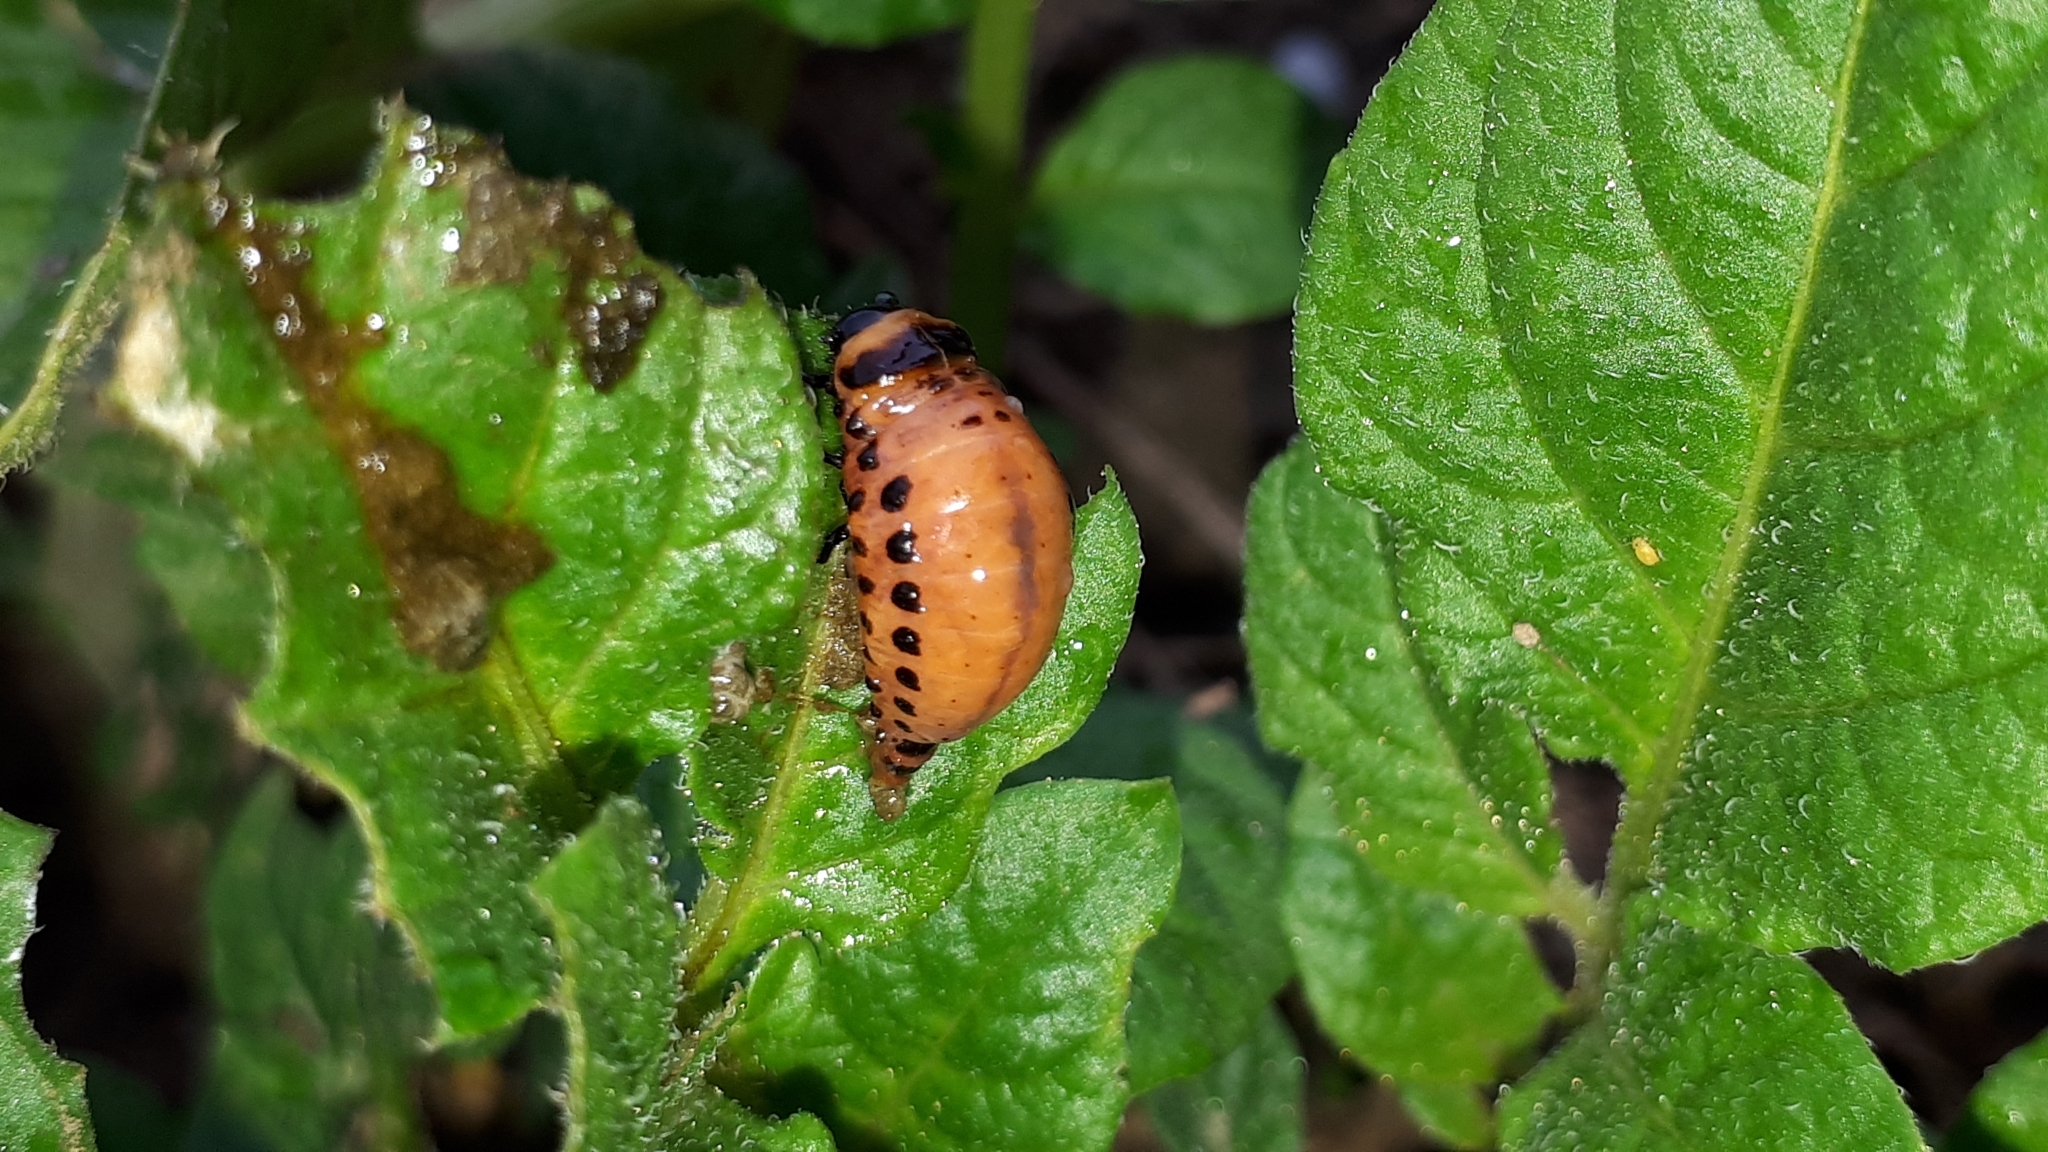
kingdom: Animalia
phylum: Arthropoda
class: Insecta
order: Coleoptera
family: Chrysomelidae
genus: Leptinotarsa
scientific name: Leptinotarsa decemlineata
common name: Colorado potato beetle
